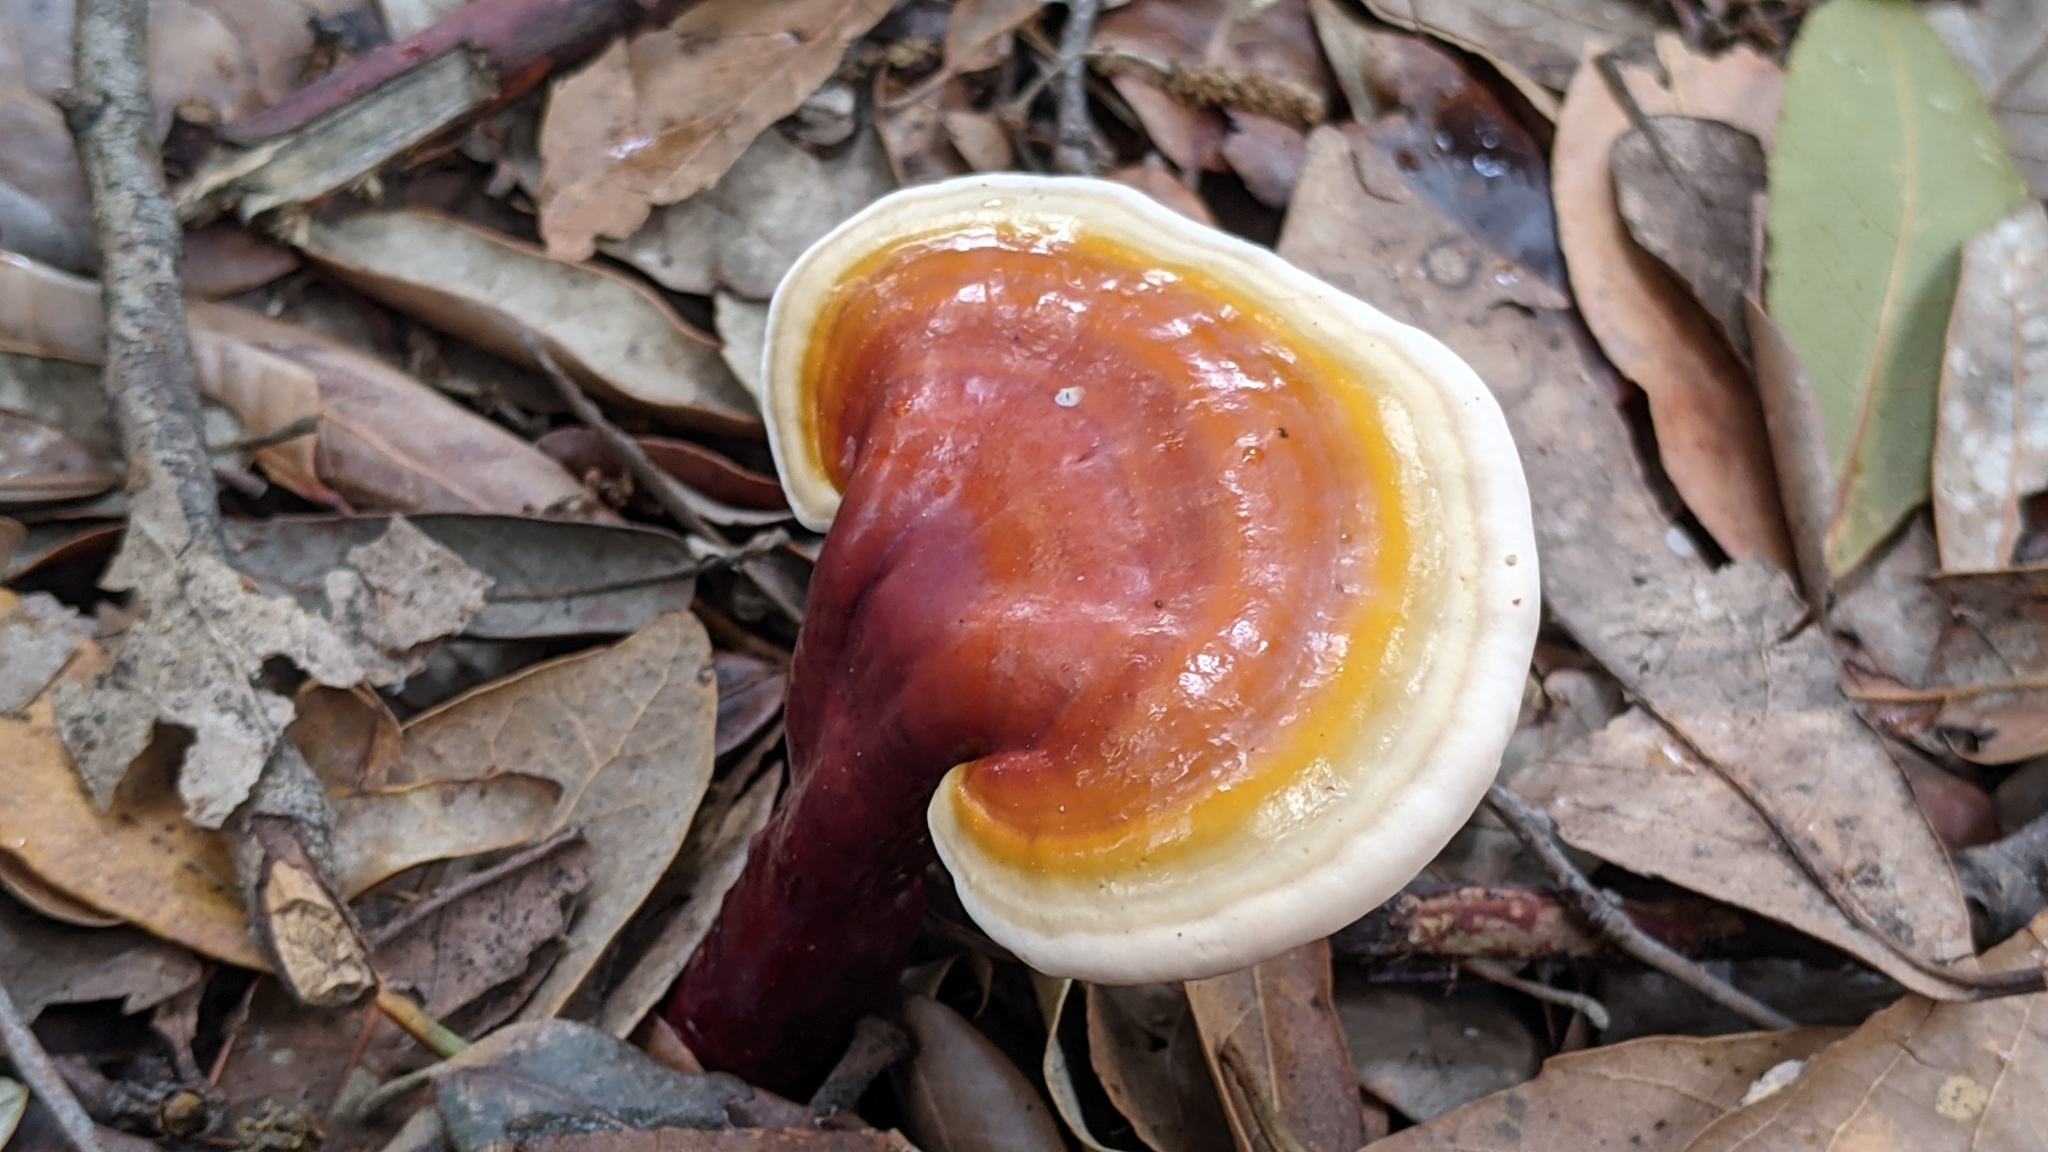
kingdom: Fungi
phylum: Basidiomycota
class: Agaricomycetes
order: Polyporales
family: Polyporaceae
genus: Ganoderma
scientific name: Ganoderma lucidum
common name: Lacquered bracket
